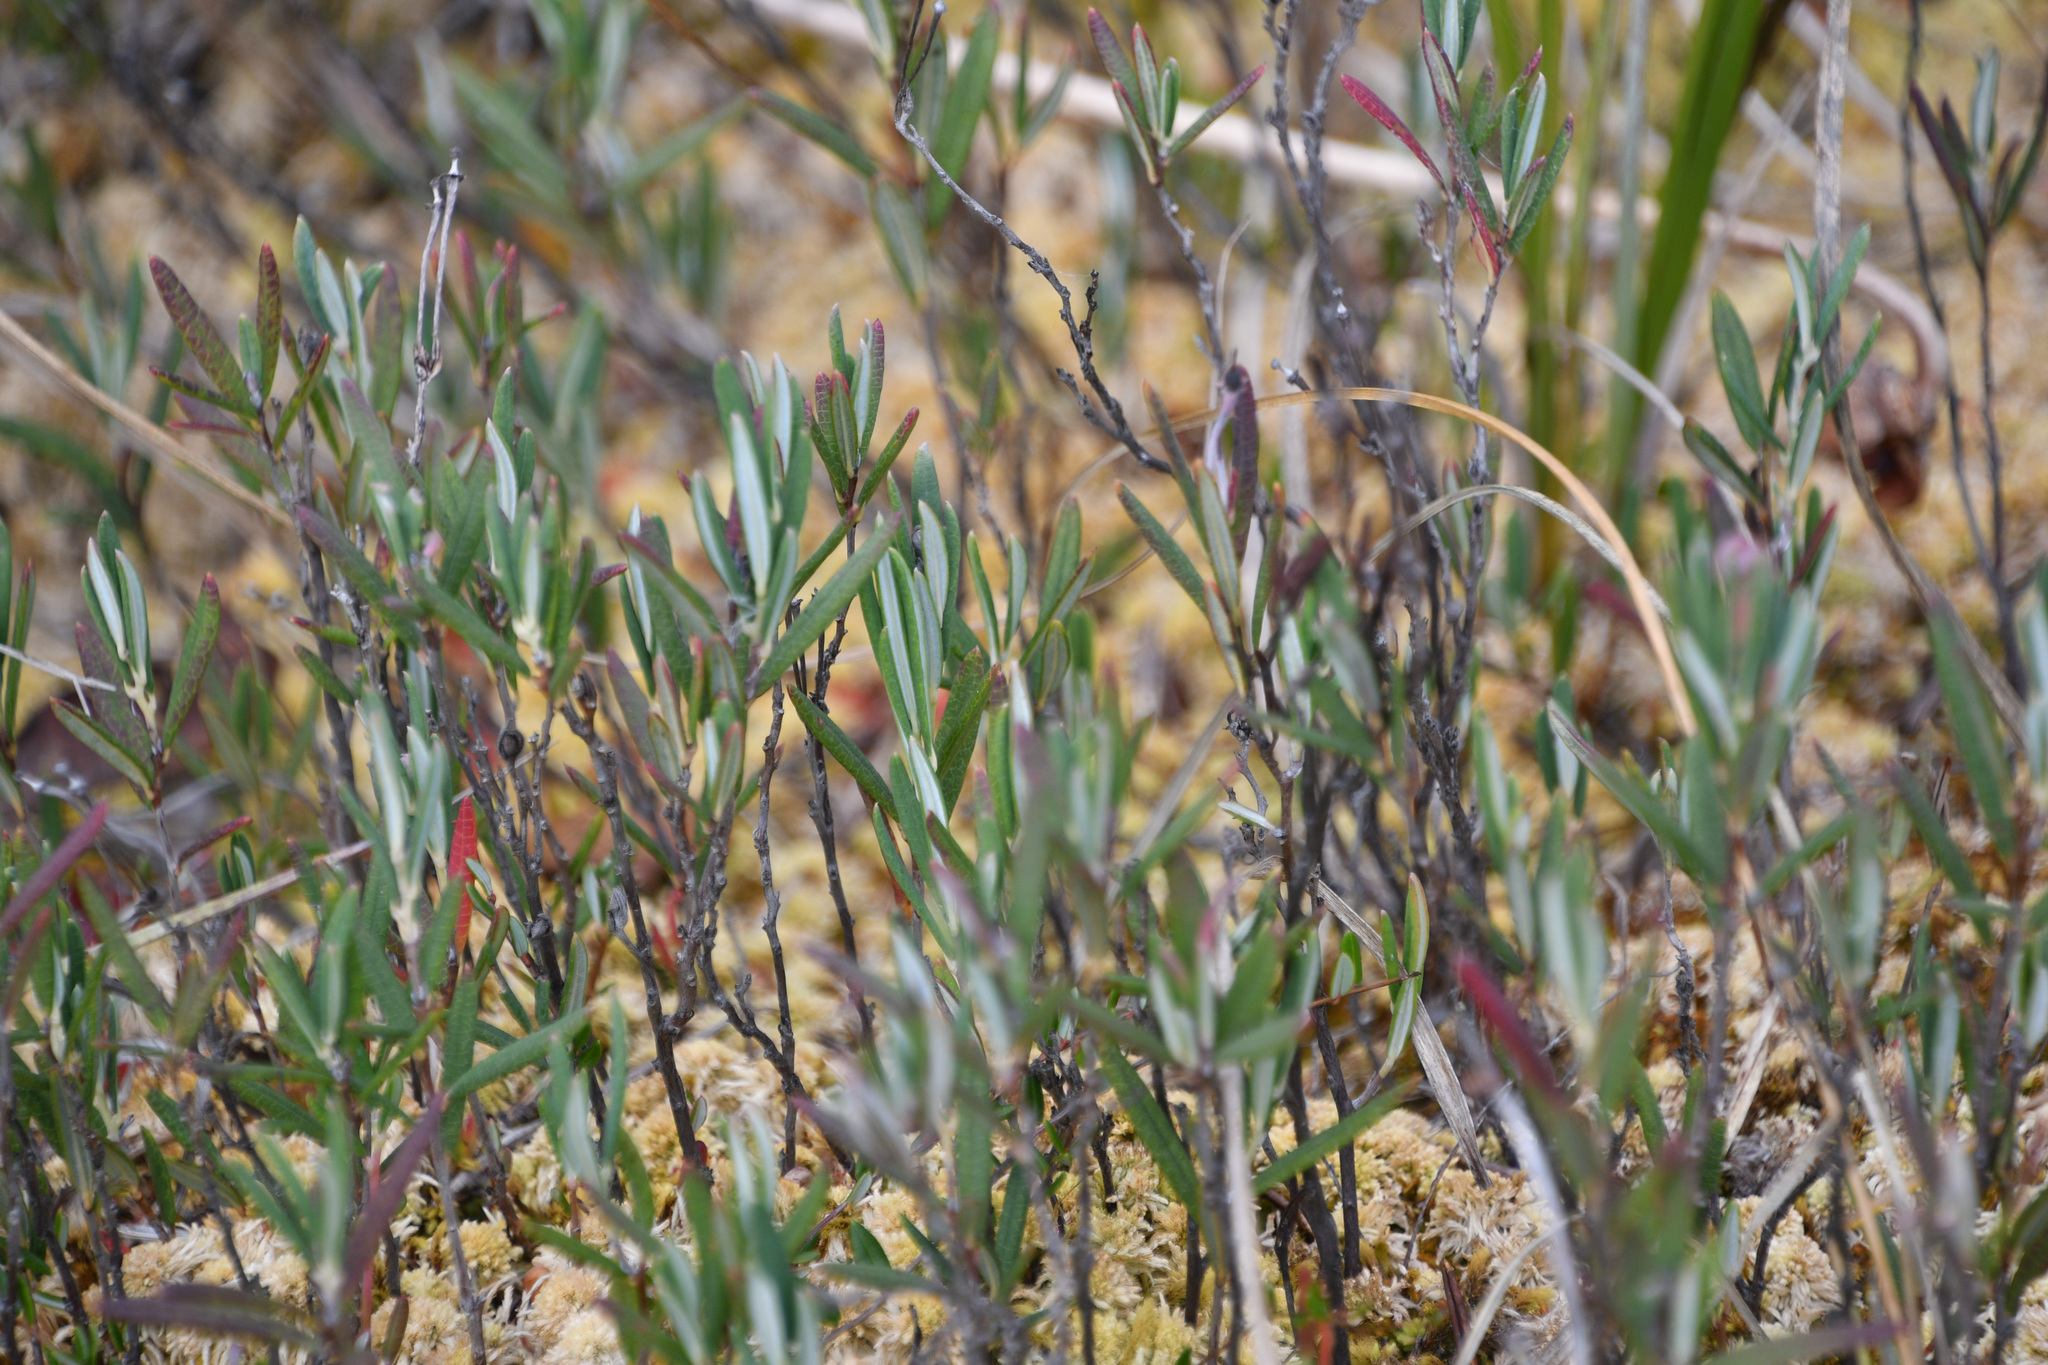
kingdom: Plantae
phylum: Tracheophyta
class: Magnoliopsida
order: Ericales
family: Ericaceae
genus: Andromeda
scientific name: Andromeda polifolia
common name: Bog-rosemary
